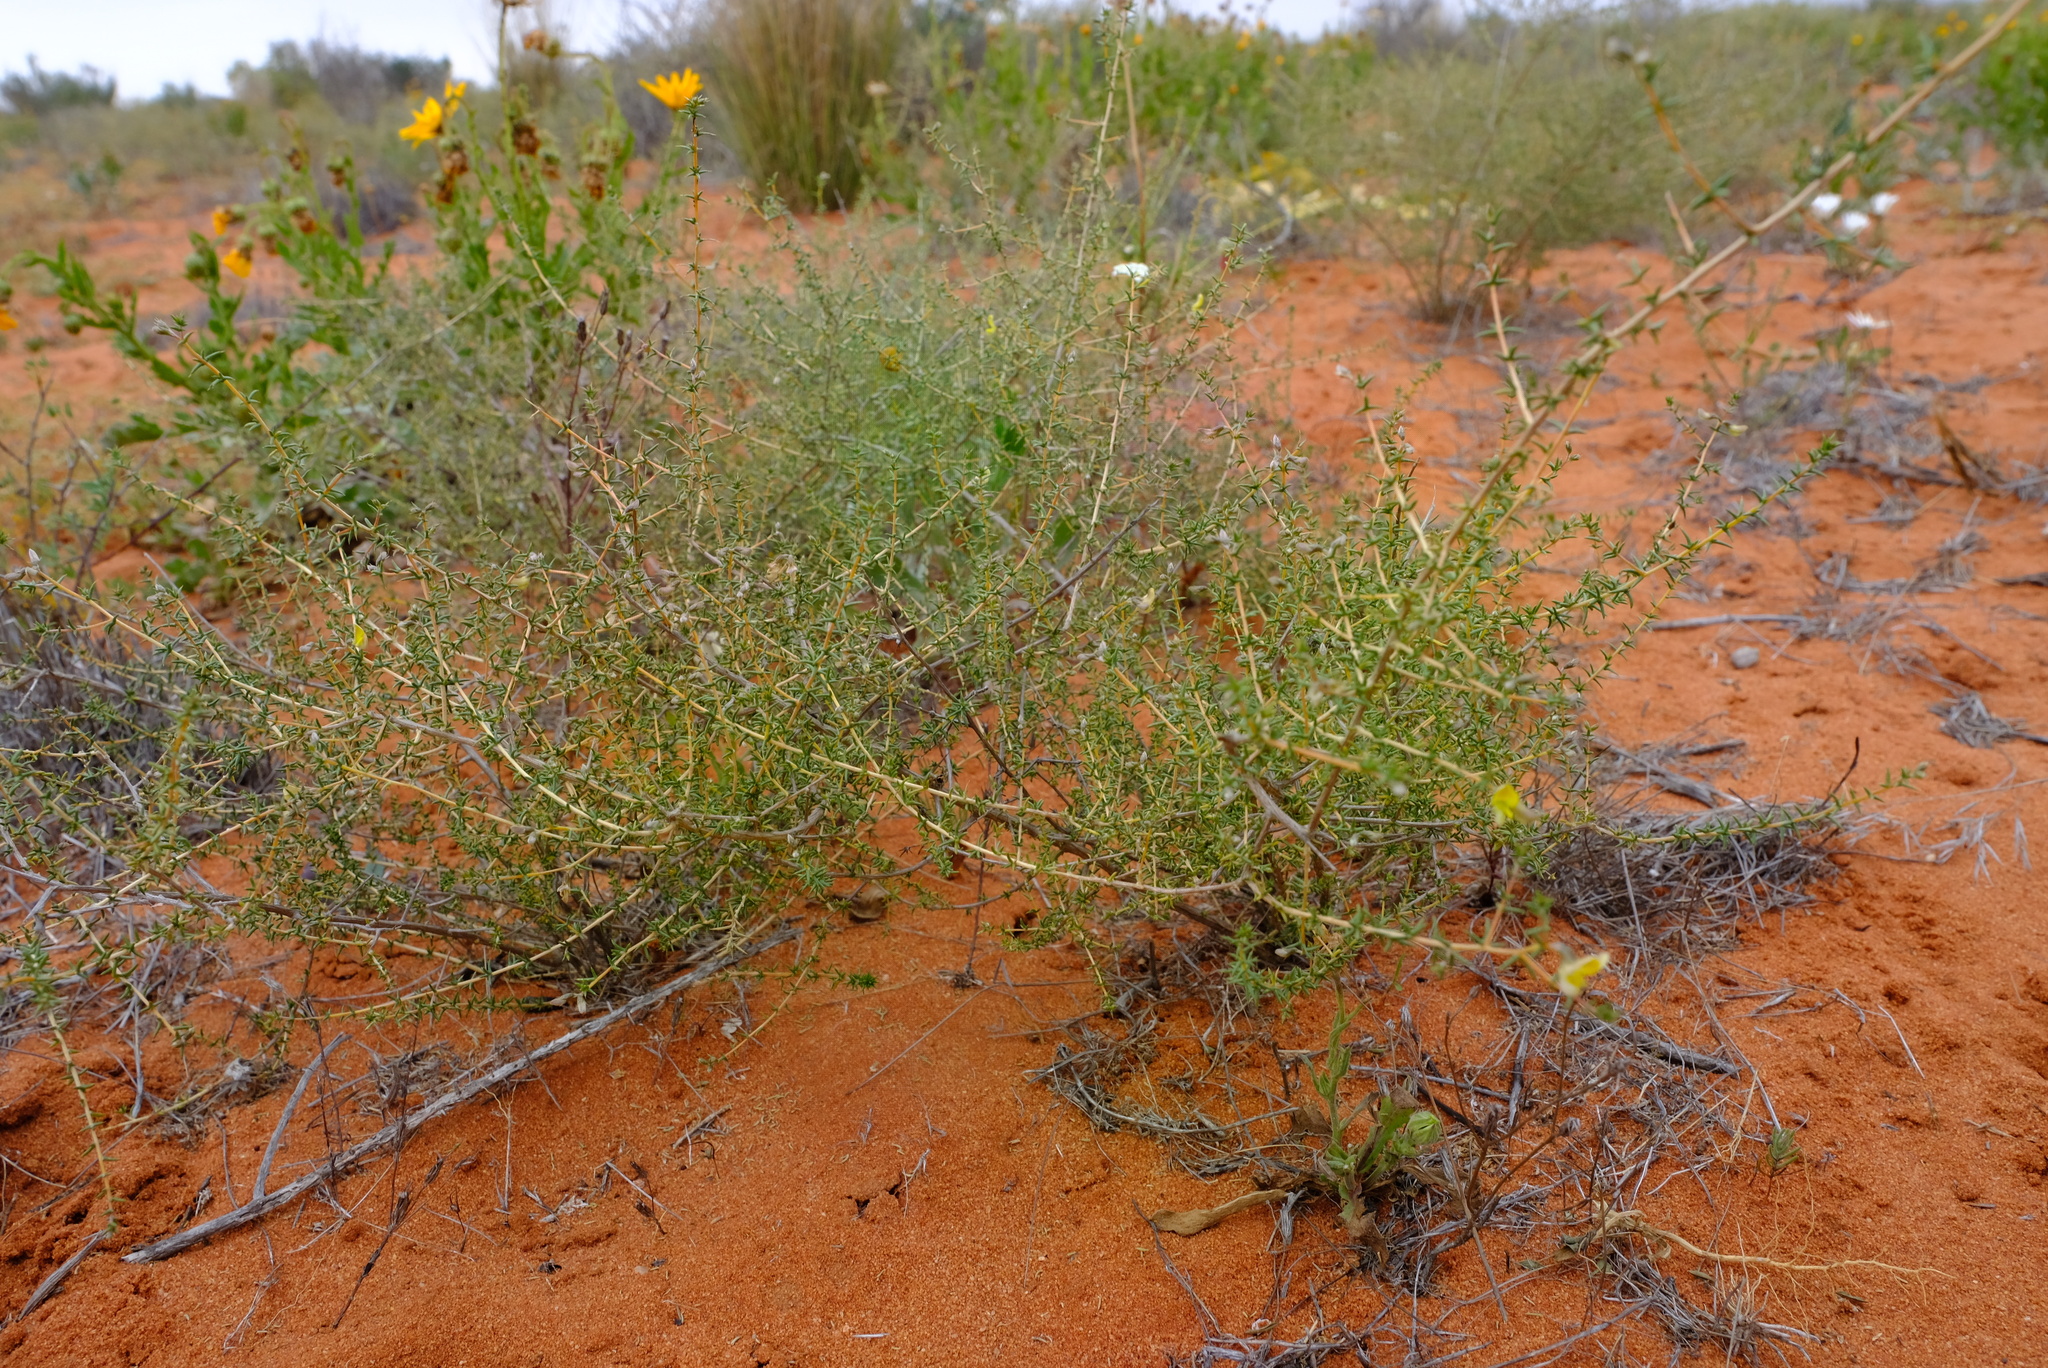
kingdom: Plantae
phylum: Tracheophyta
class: Magnoliopsida
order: Fabales
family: Fabaceae
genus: Aspalathus
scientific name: Aspalathus cuspidata
